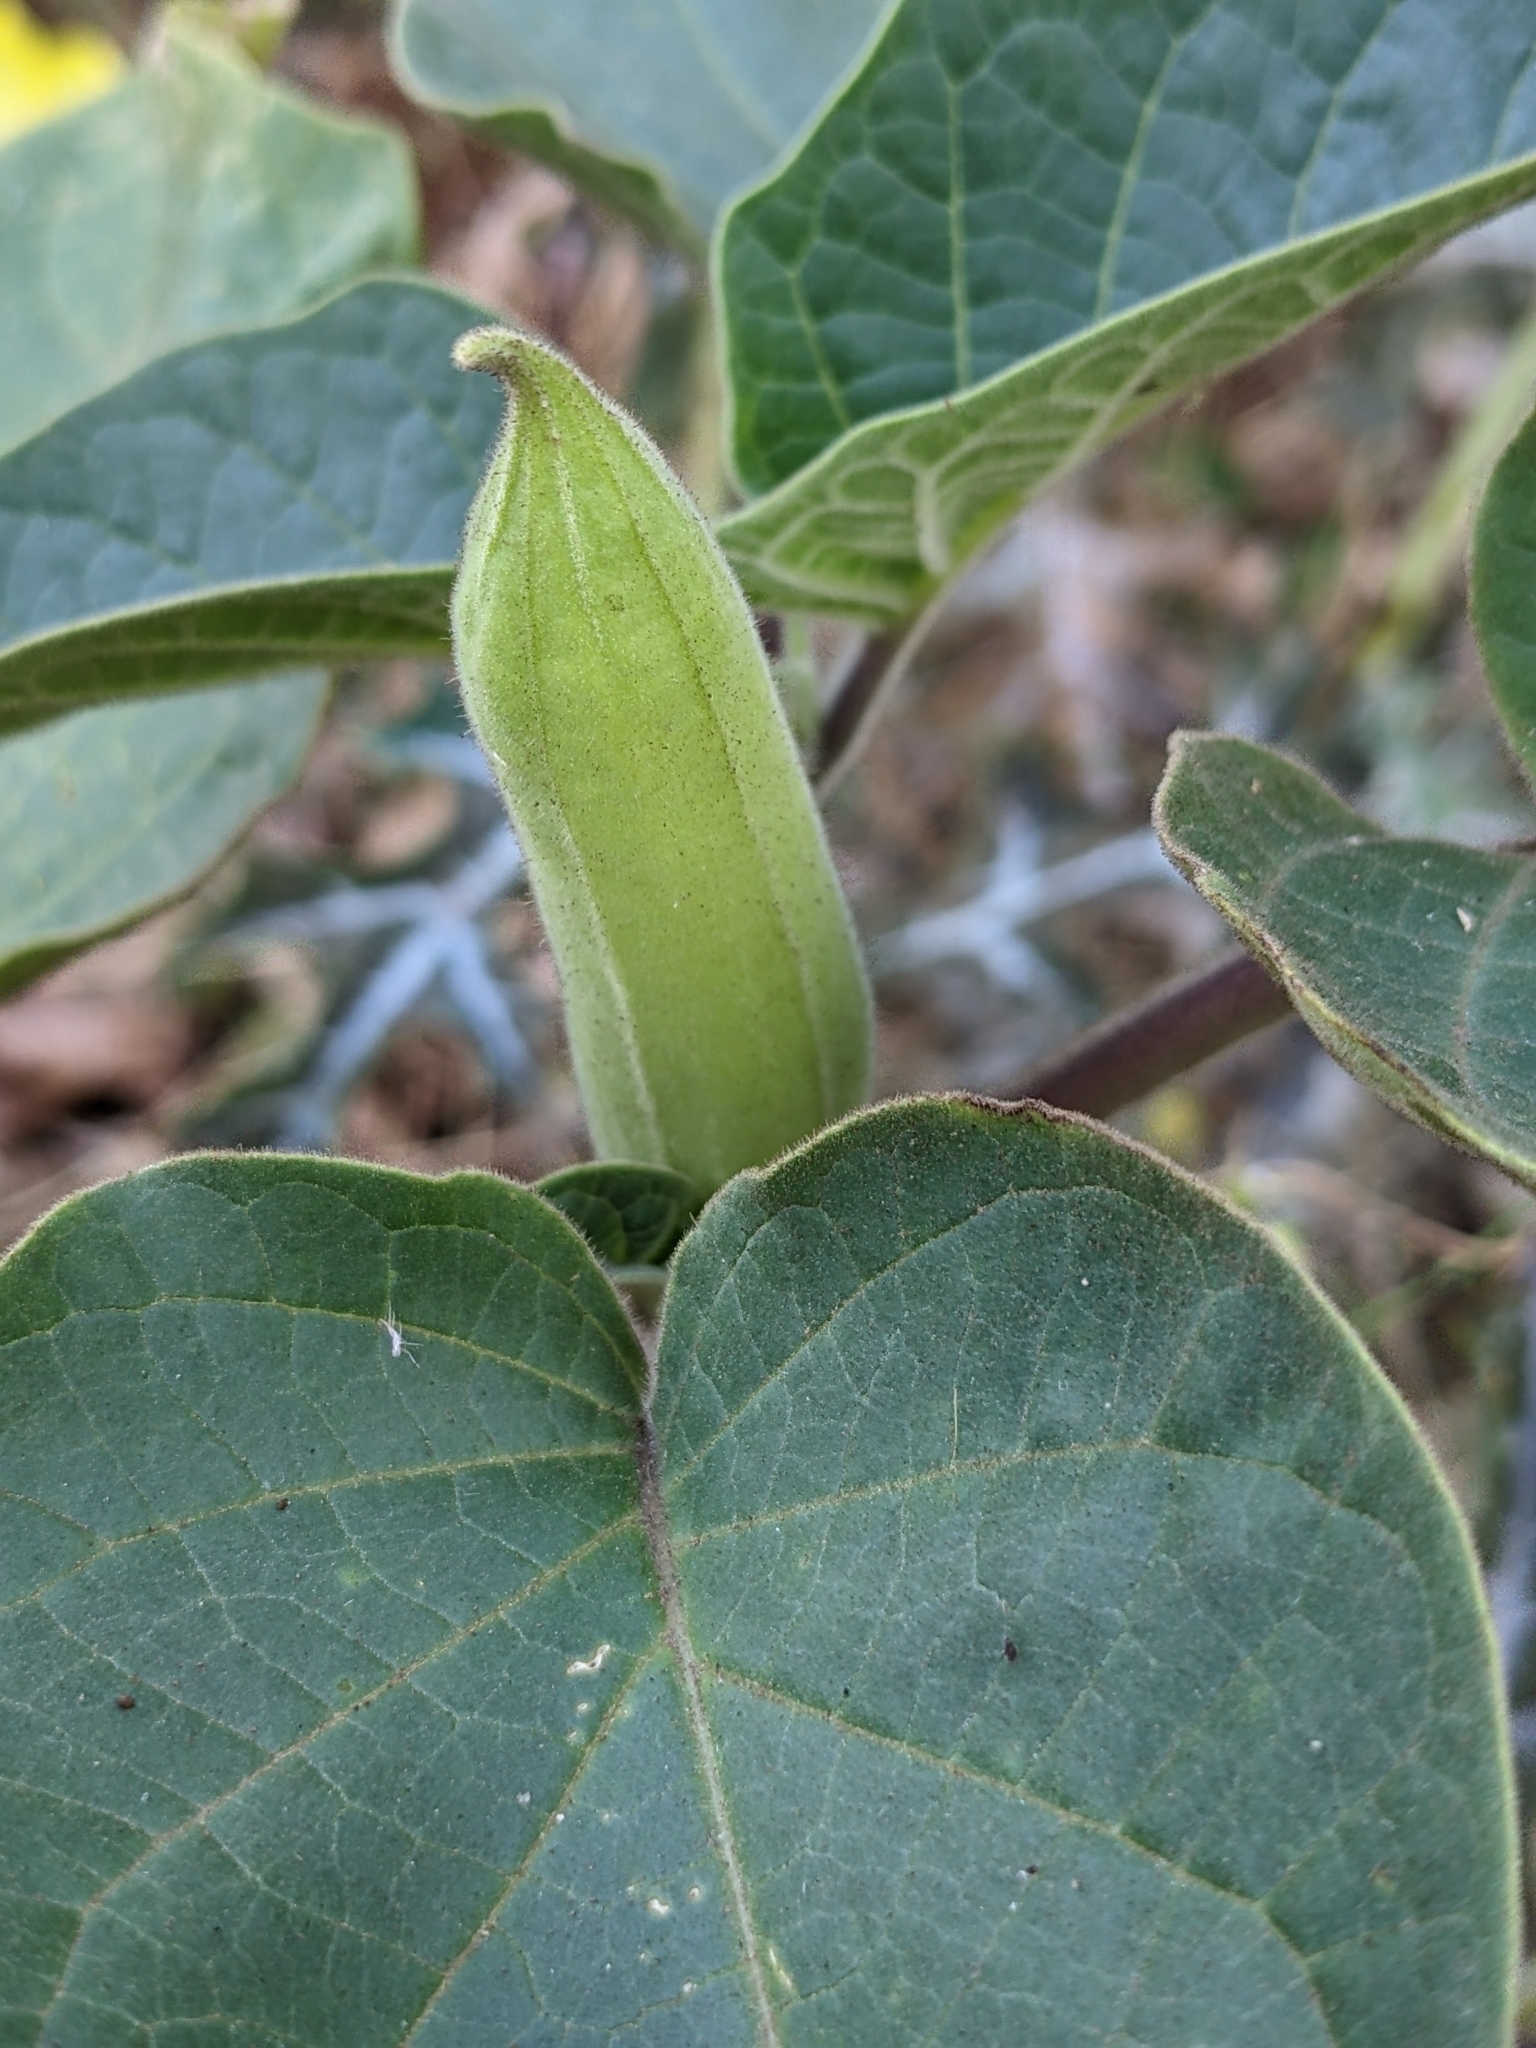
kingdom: Plantae
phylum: Tracheophyta
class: Magnoliopsida
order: Solanales
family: Solanaceae
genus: Datura
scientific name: Datura innoxia
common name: Downy thorn-apple
